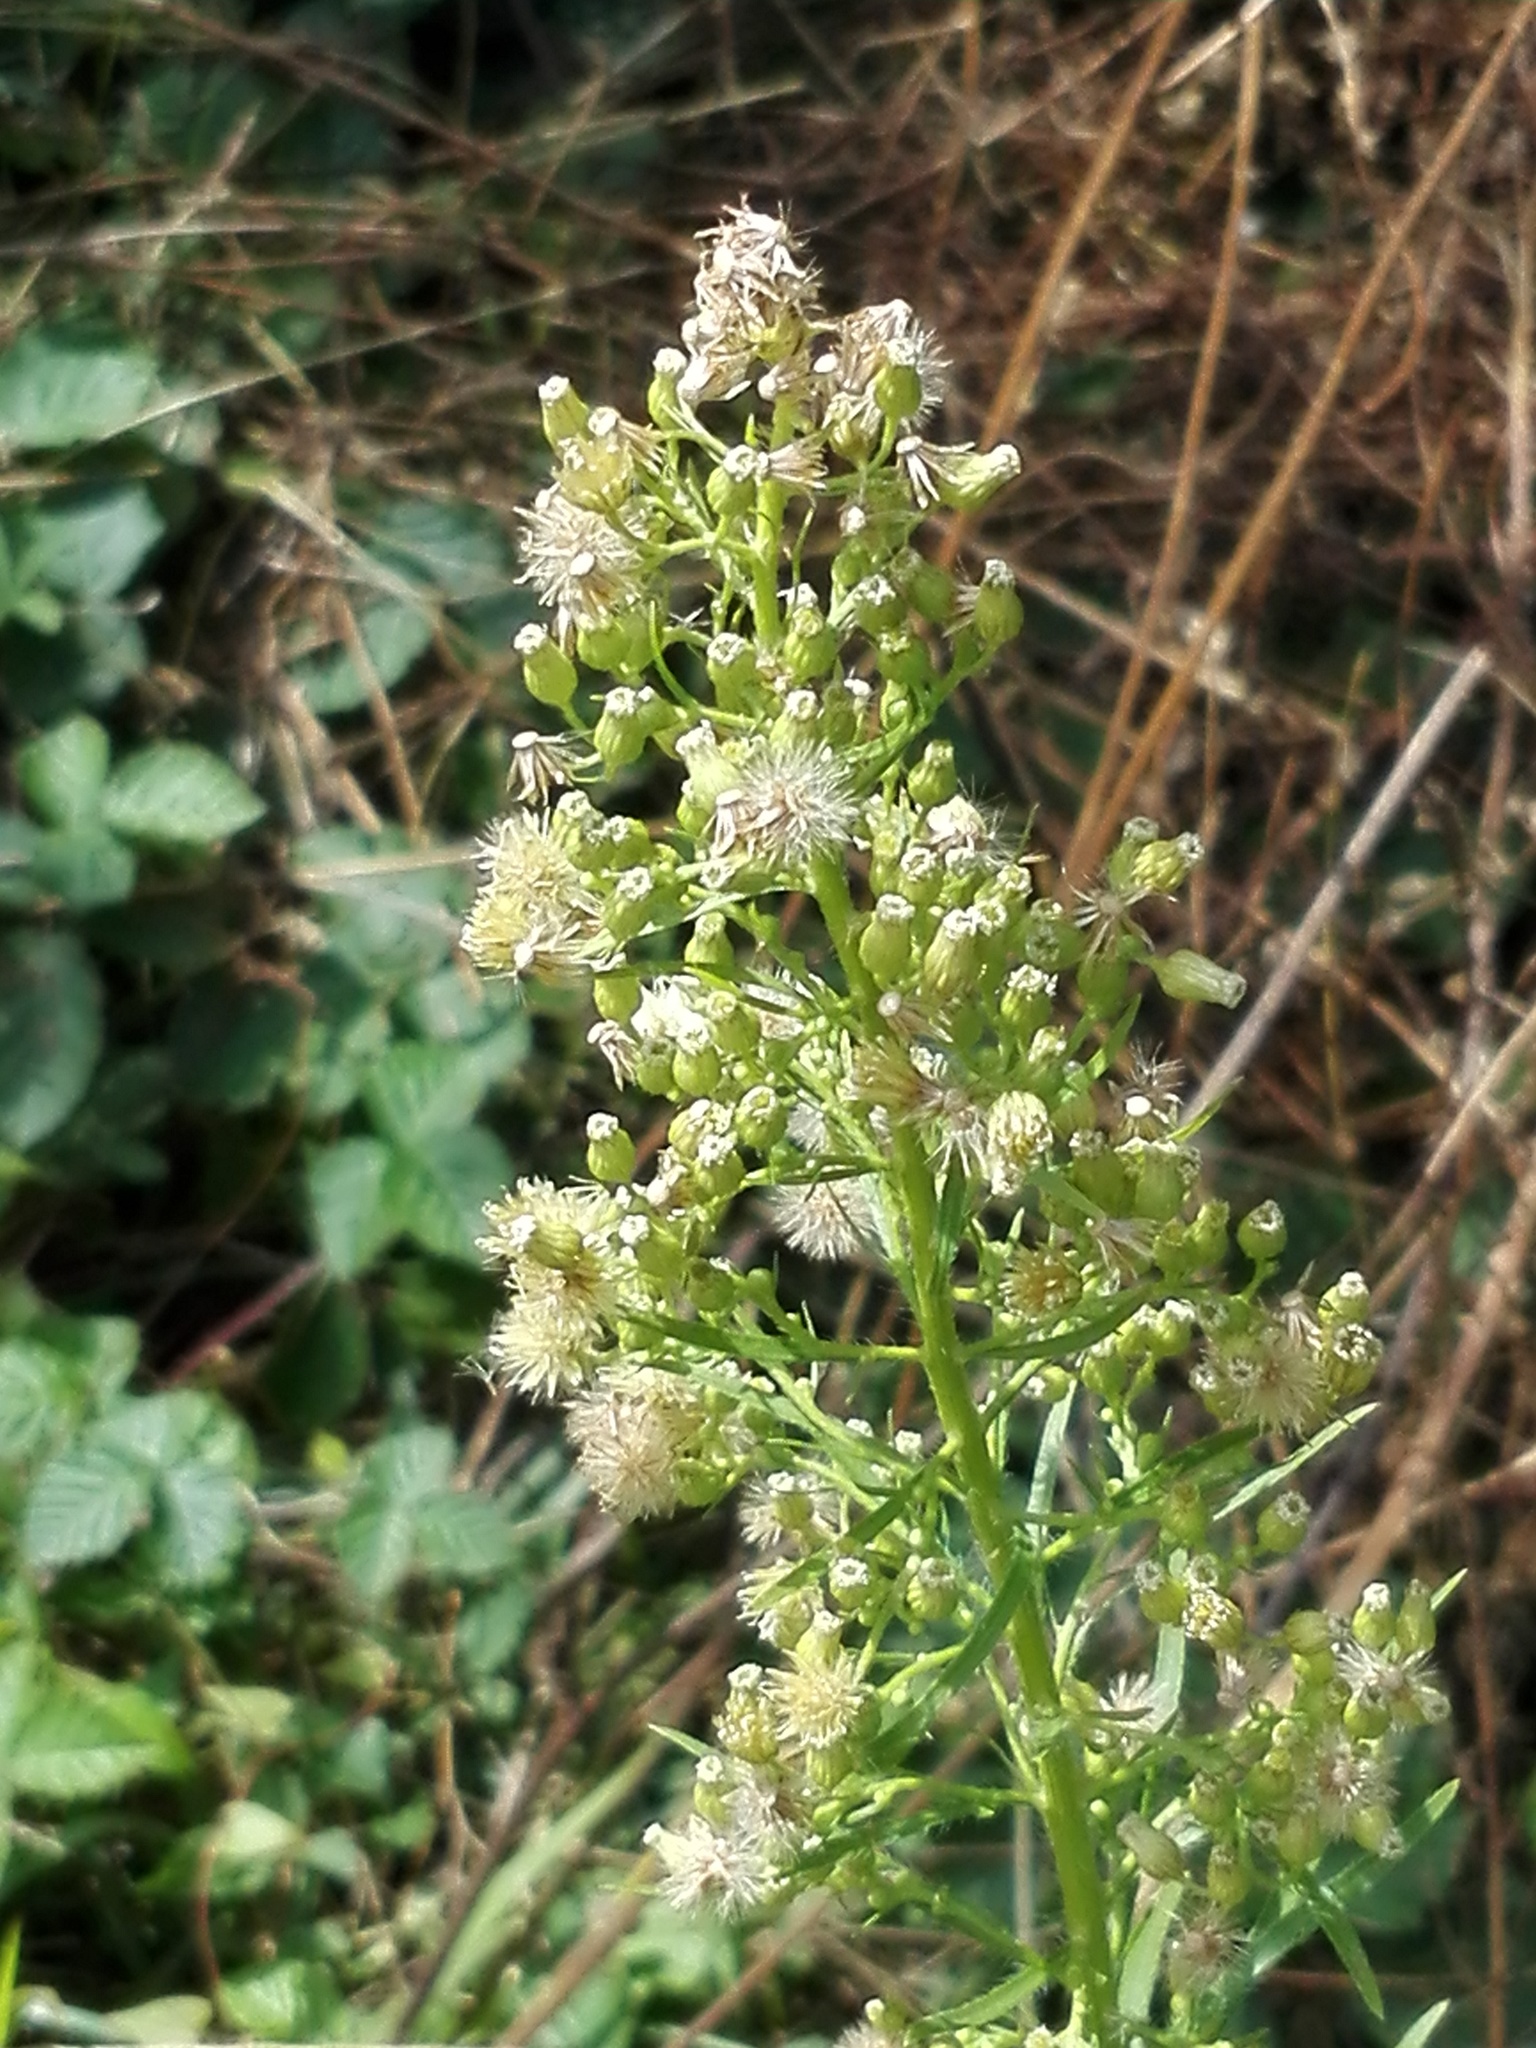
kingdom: Plantae
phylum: Tracheophyta
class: Magnoliopsida
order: Asterales
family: Asteraceae
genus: Erigeron
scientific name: Erigeron bonariensis
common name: Argentine fleabane
